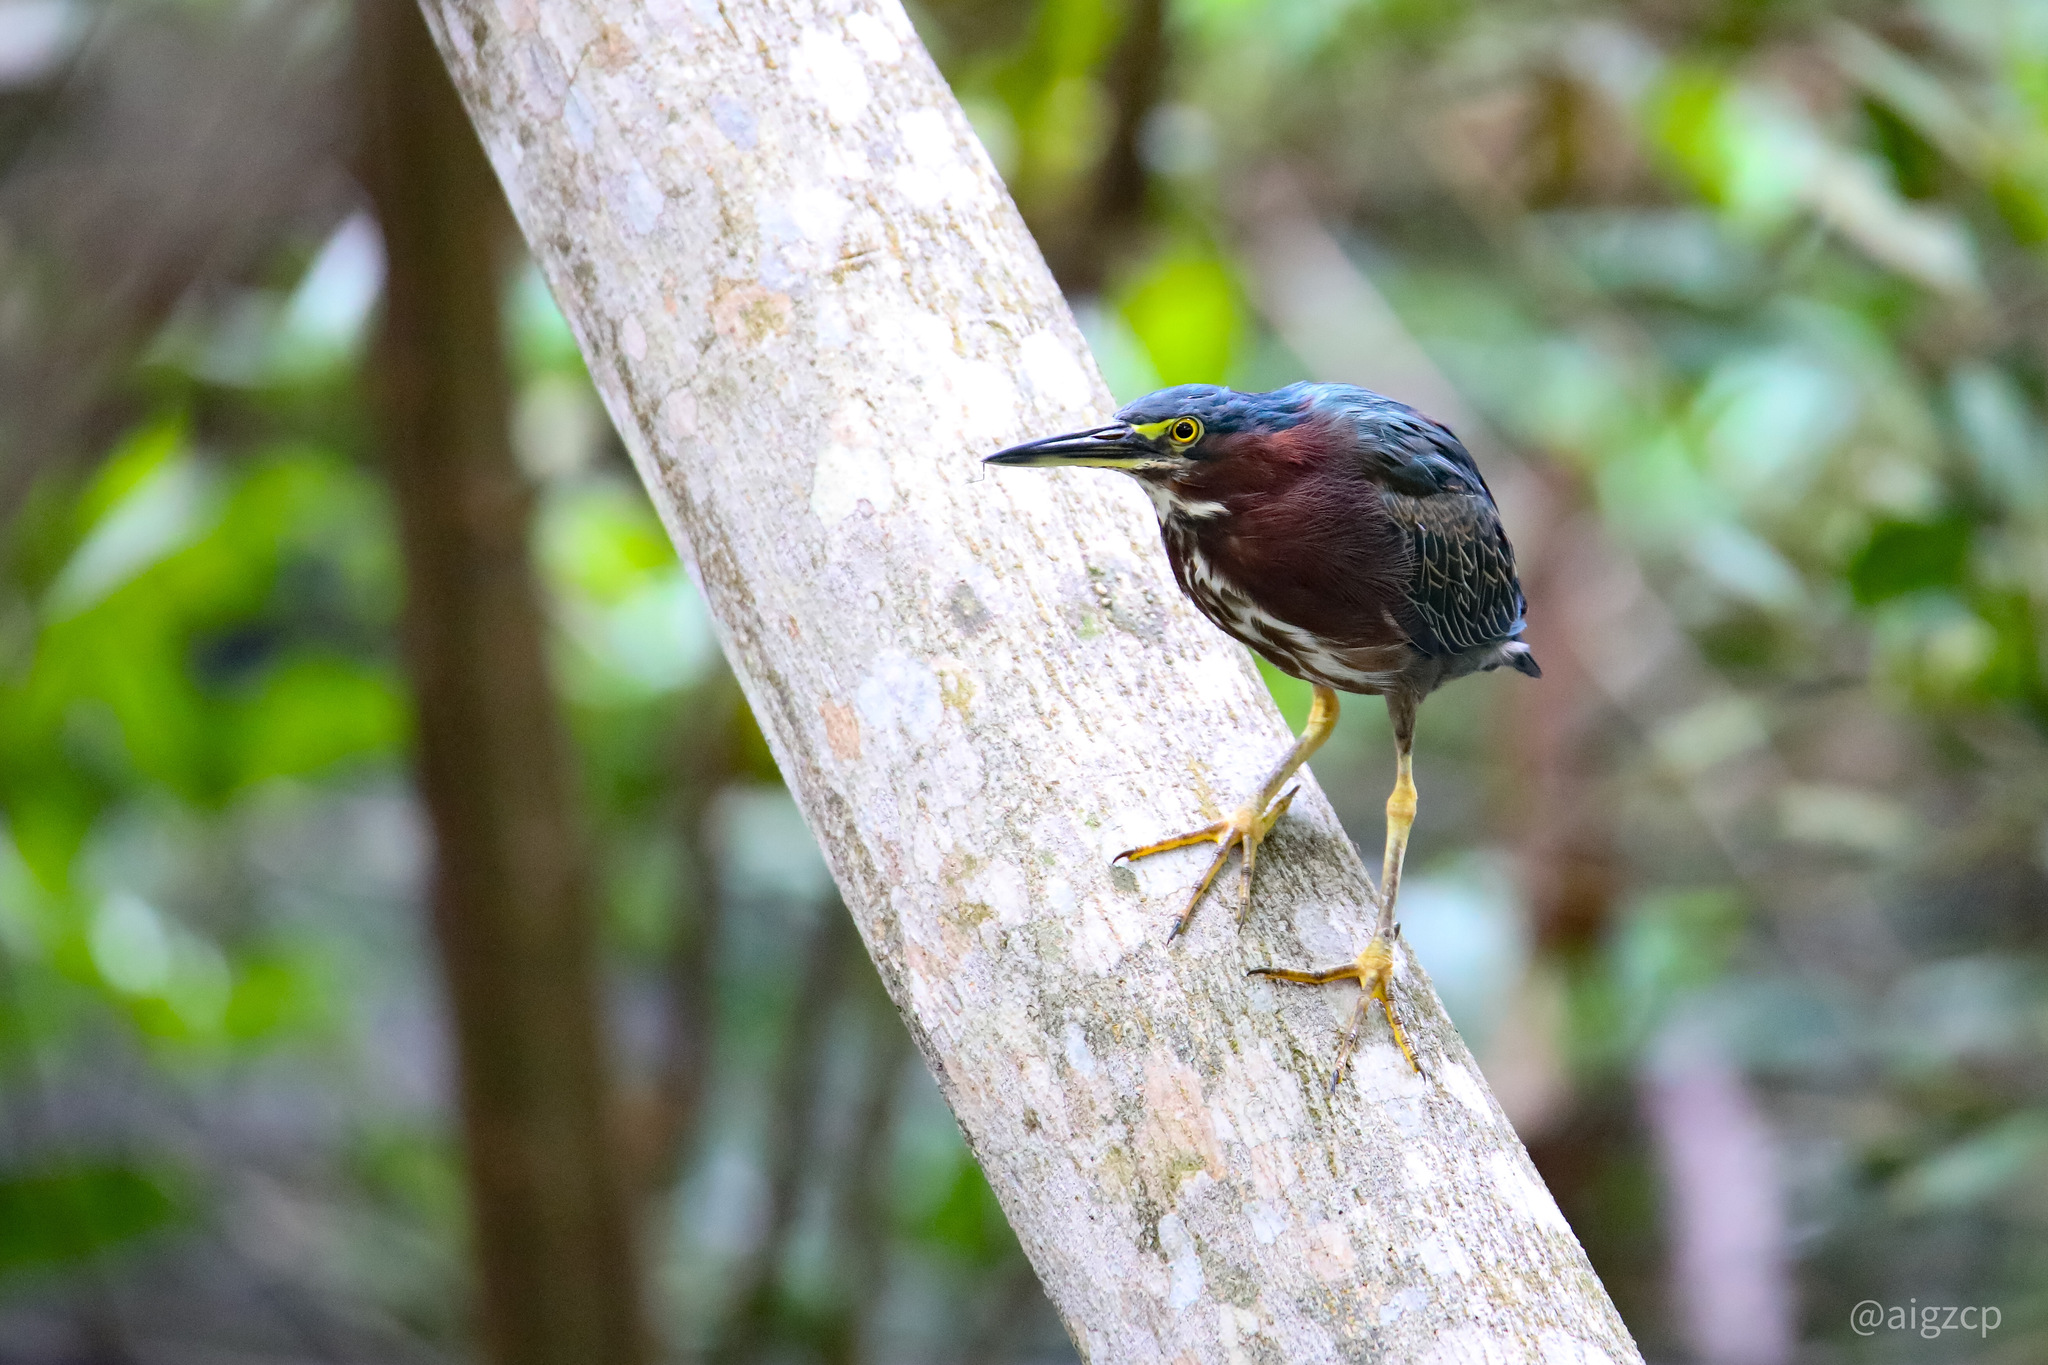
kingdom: Animalia
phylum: Chordata
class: Aves
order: Pelecaniformes
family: Ardeidae
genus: Butorides
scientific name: Butorides virescens
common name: Green heron
